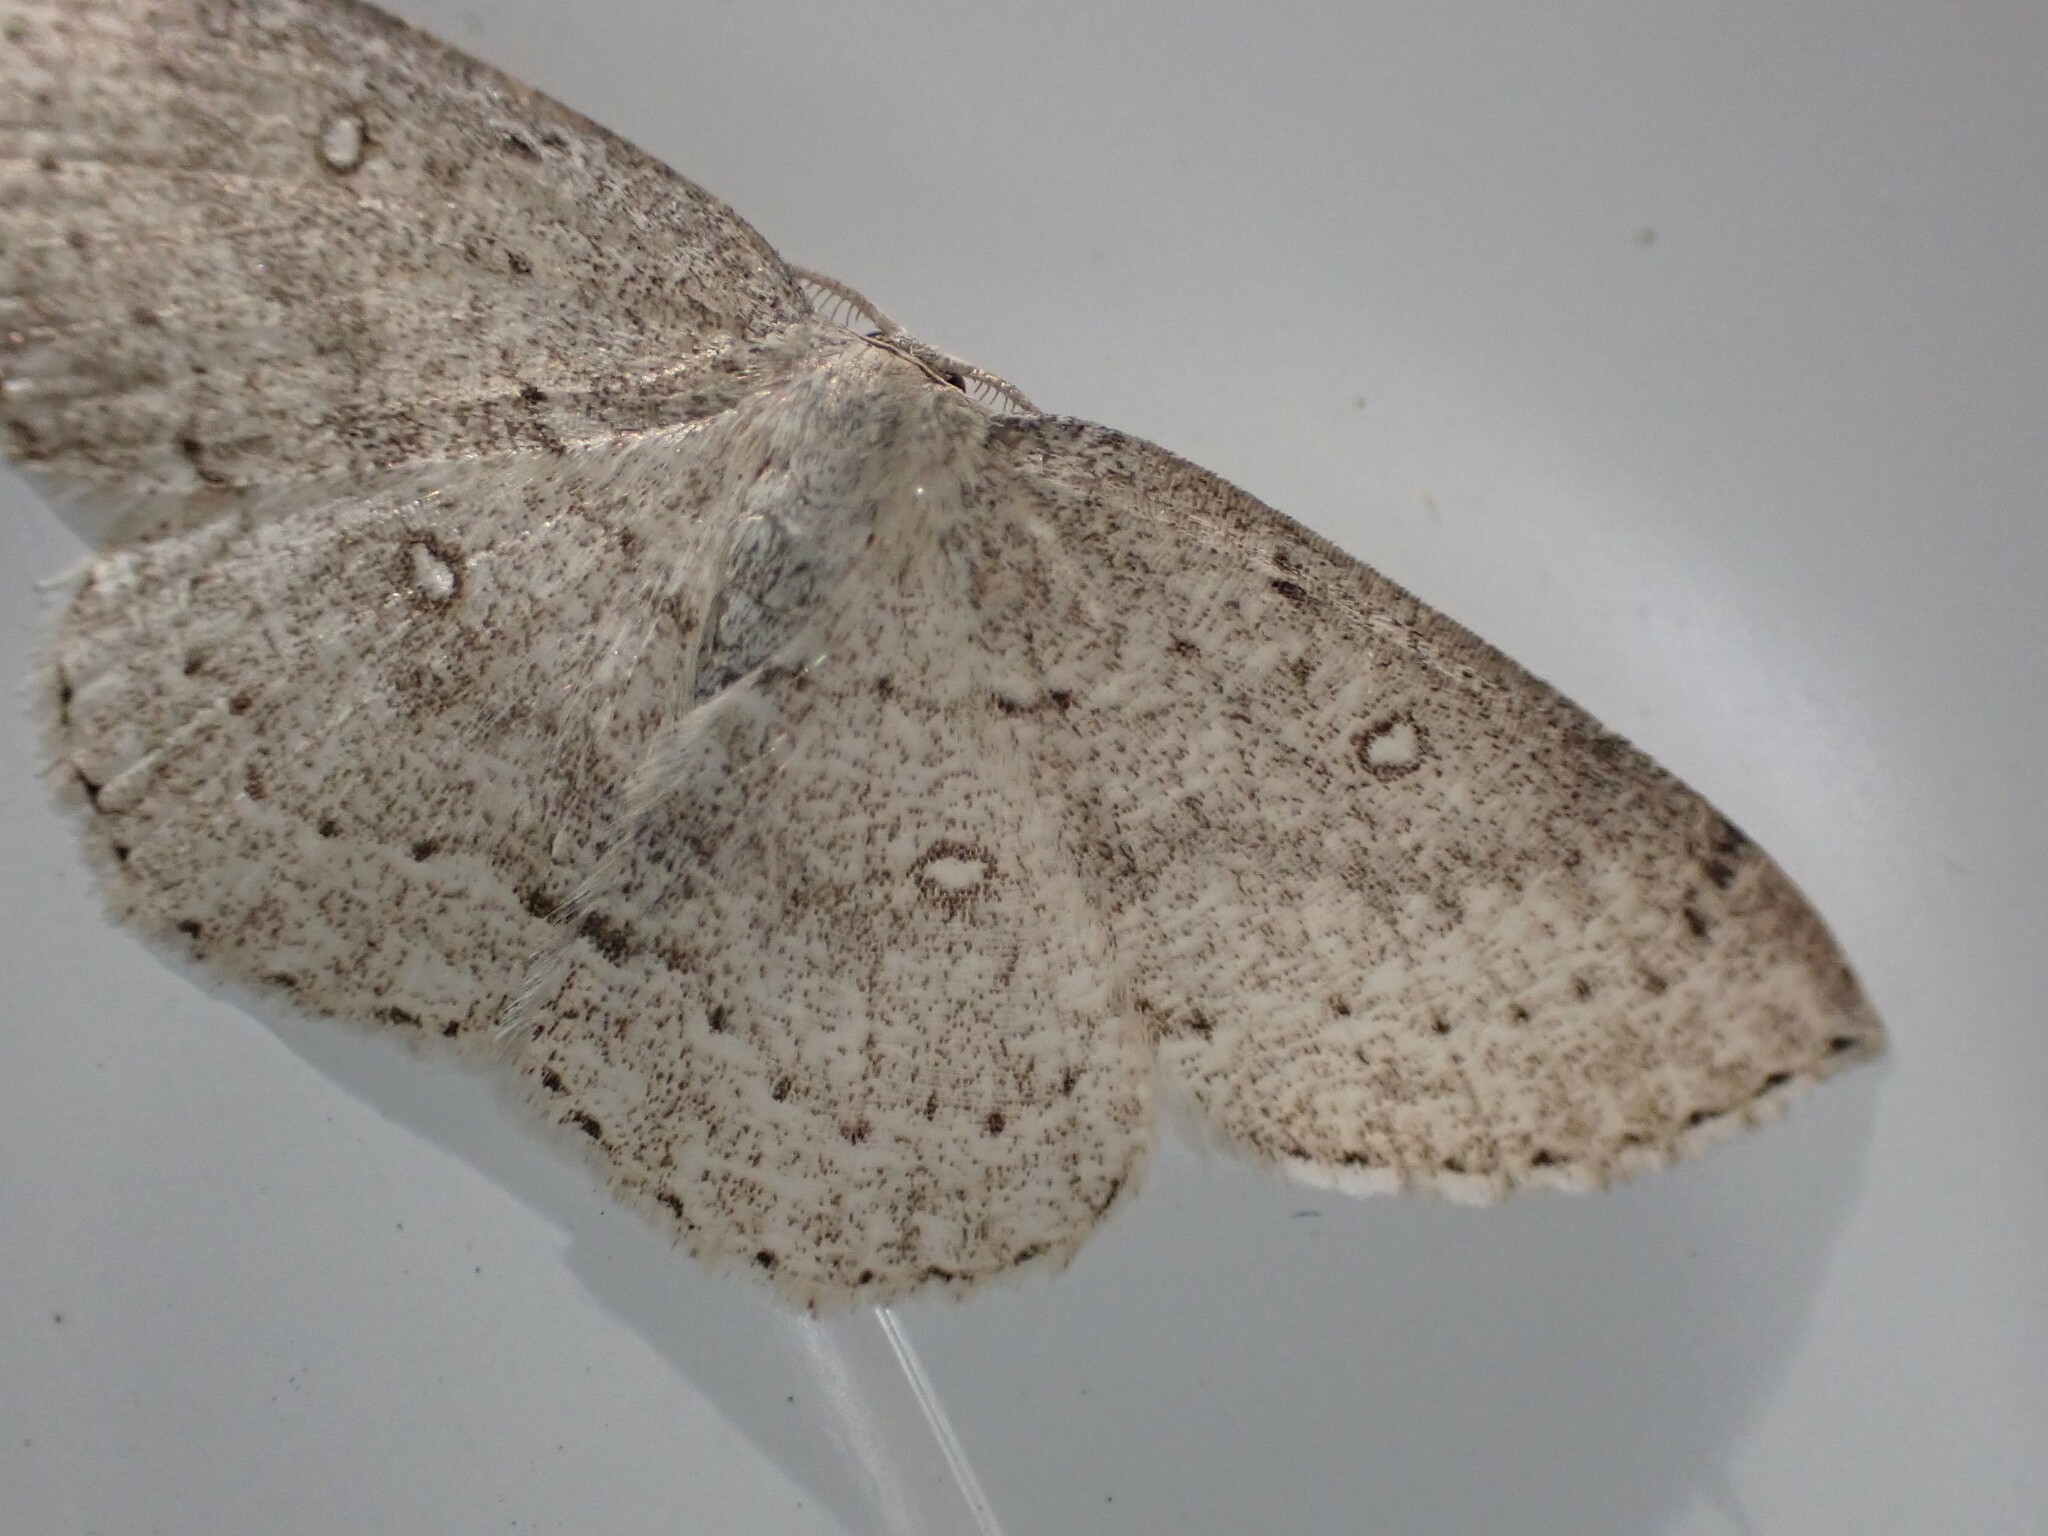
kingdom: Animalia
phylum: Arthropoda
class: Insecta
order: Lepidoptera
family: Geometridae
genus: Cyclophora
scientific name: Cyclophora pendulinaria
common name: Sweet fern geometer
